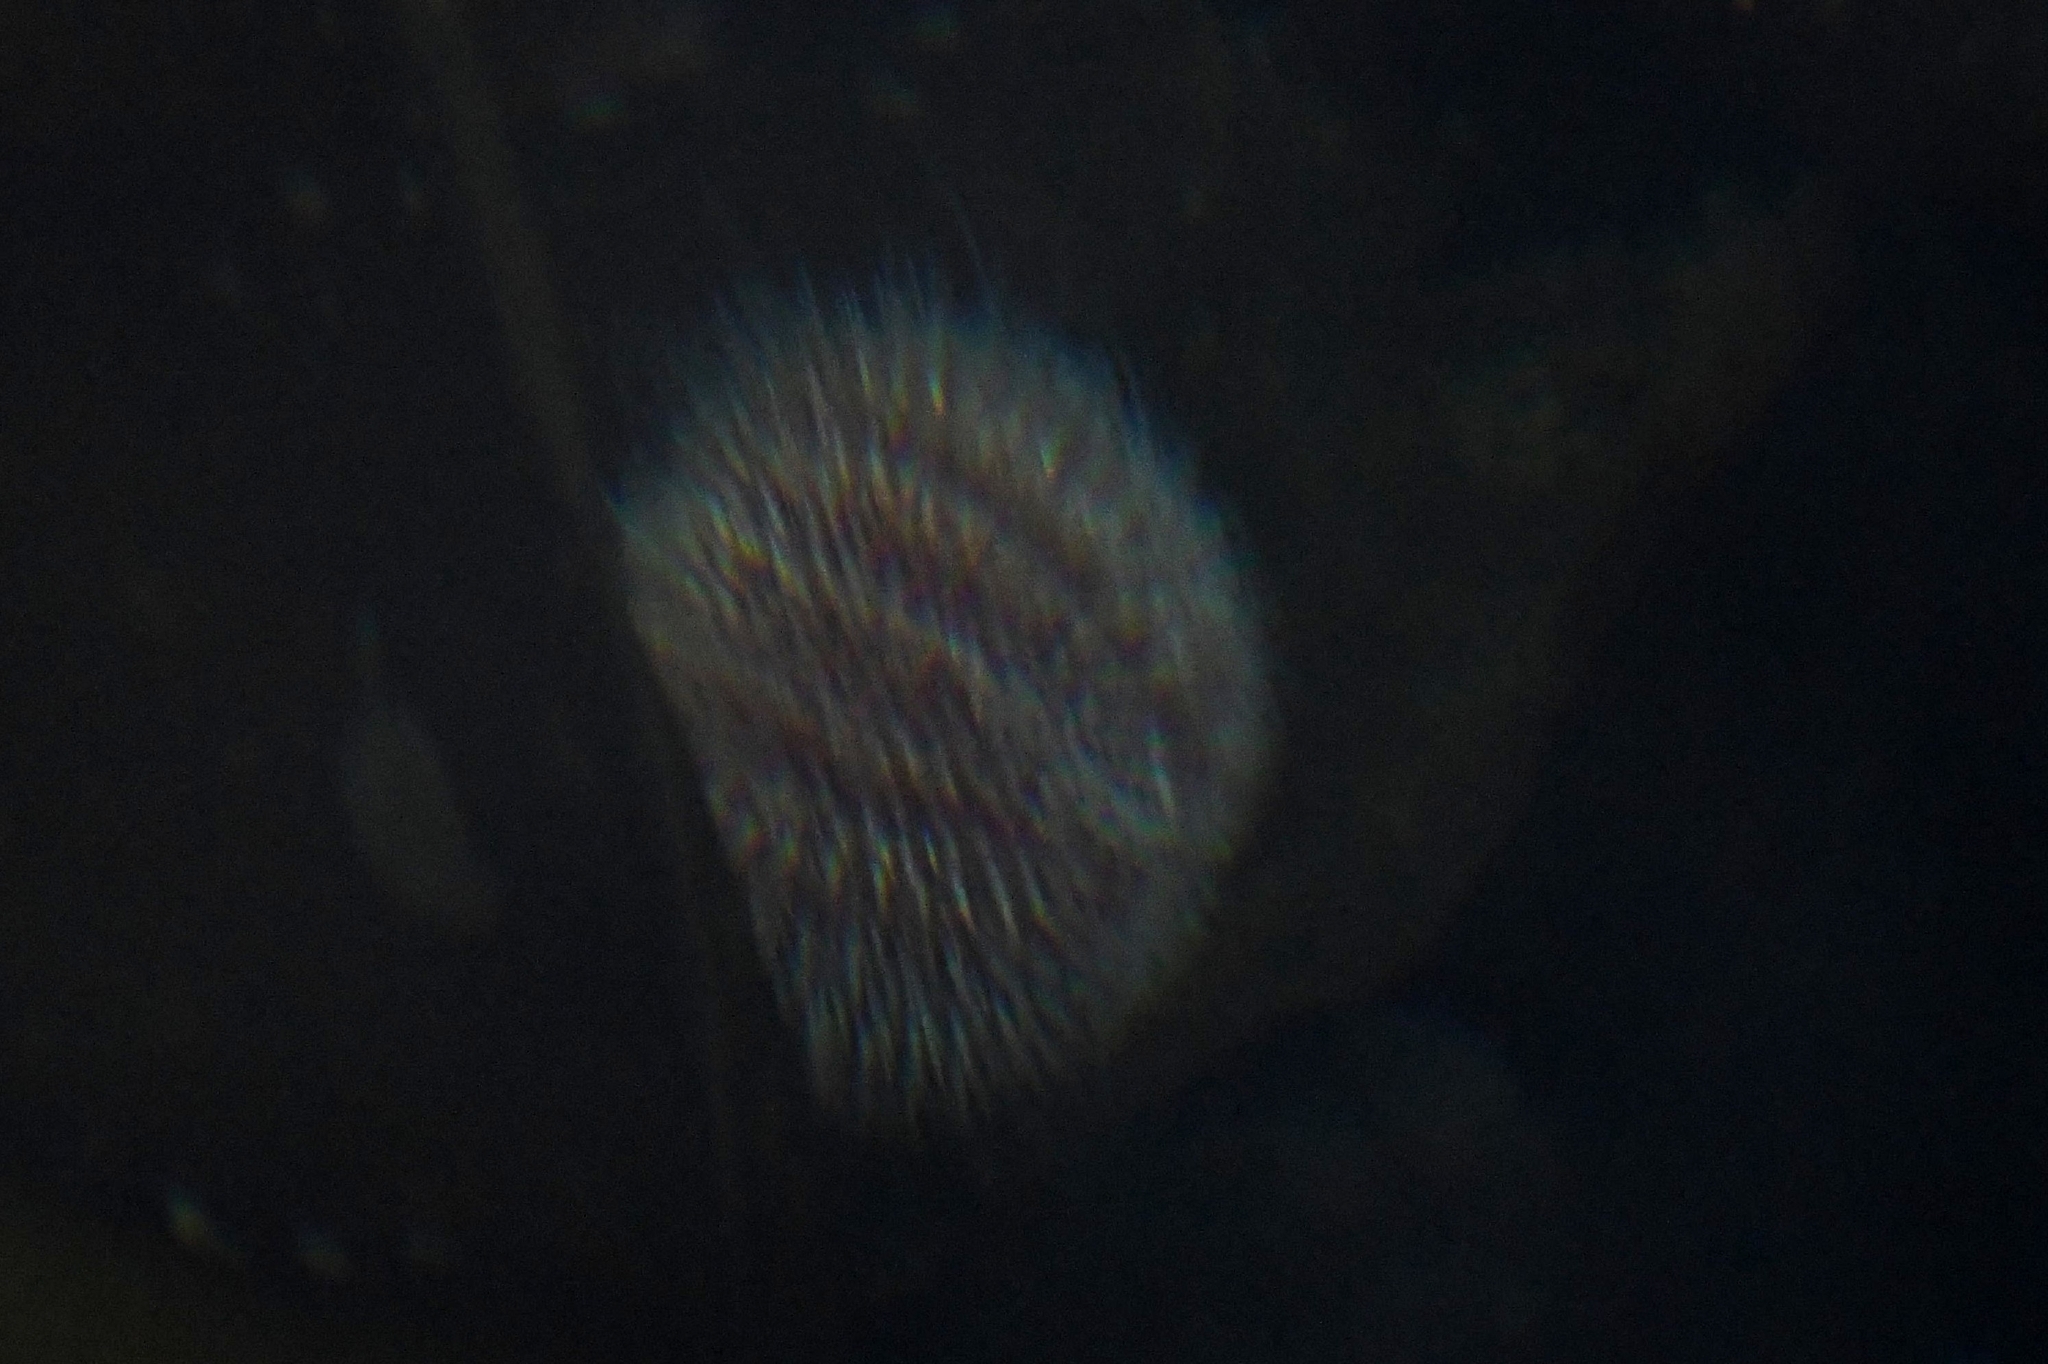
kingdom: Animalia
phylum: Echinodermata
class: Echinoidea
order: Camarodonta
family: Echinidae
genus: Echinus
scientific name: Echinus esculentus
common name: Edible sea urchin
